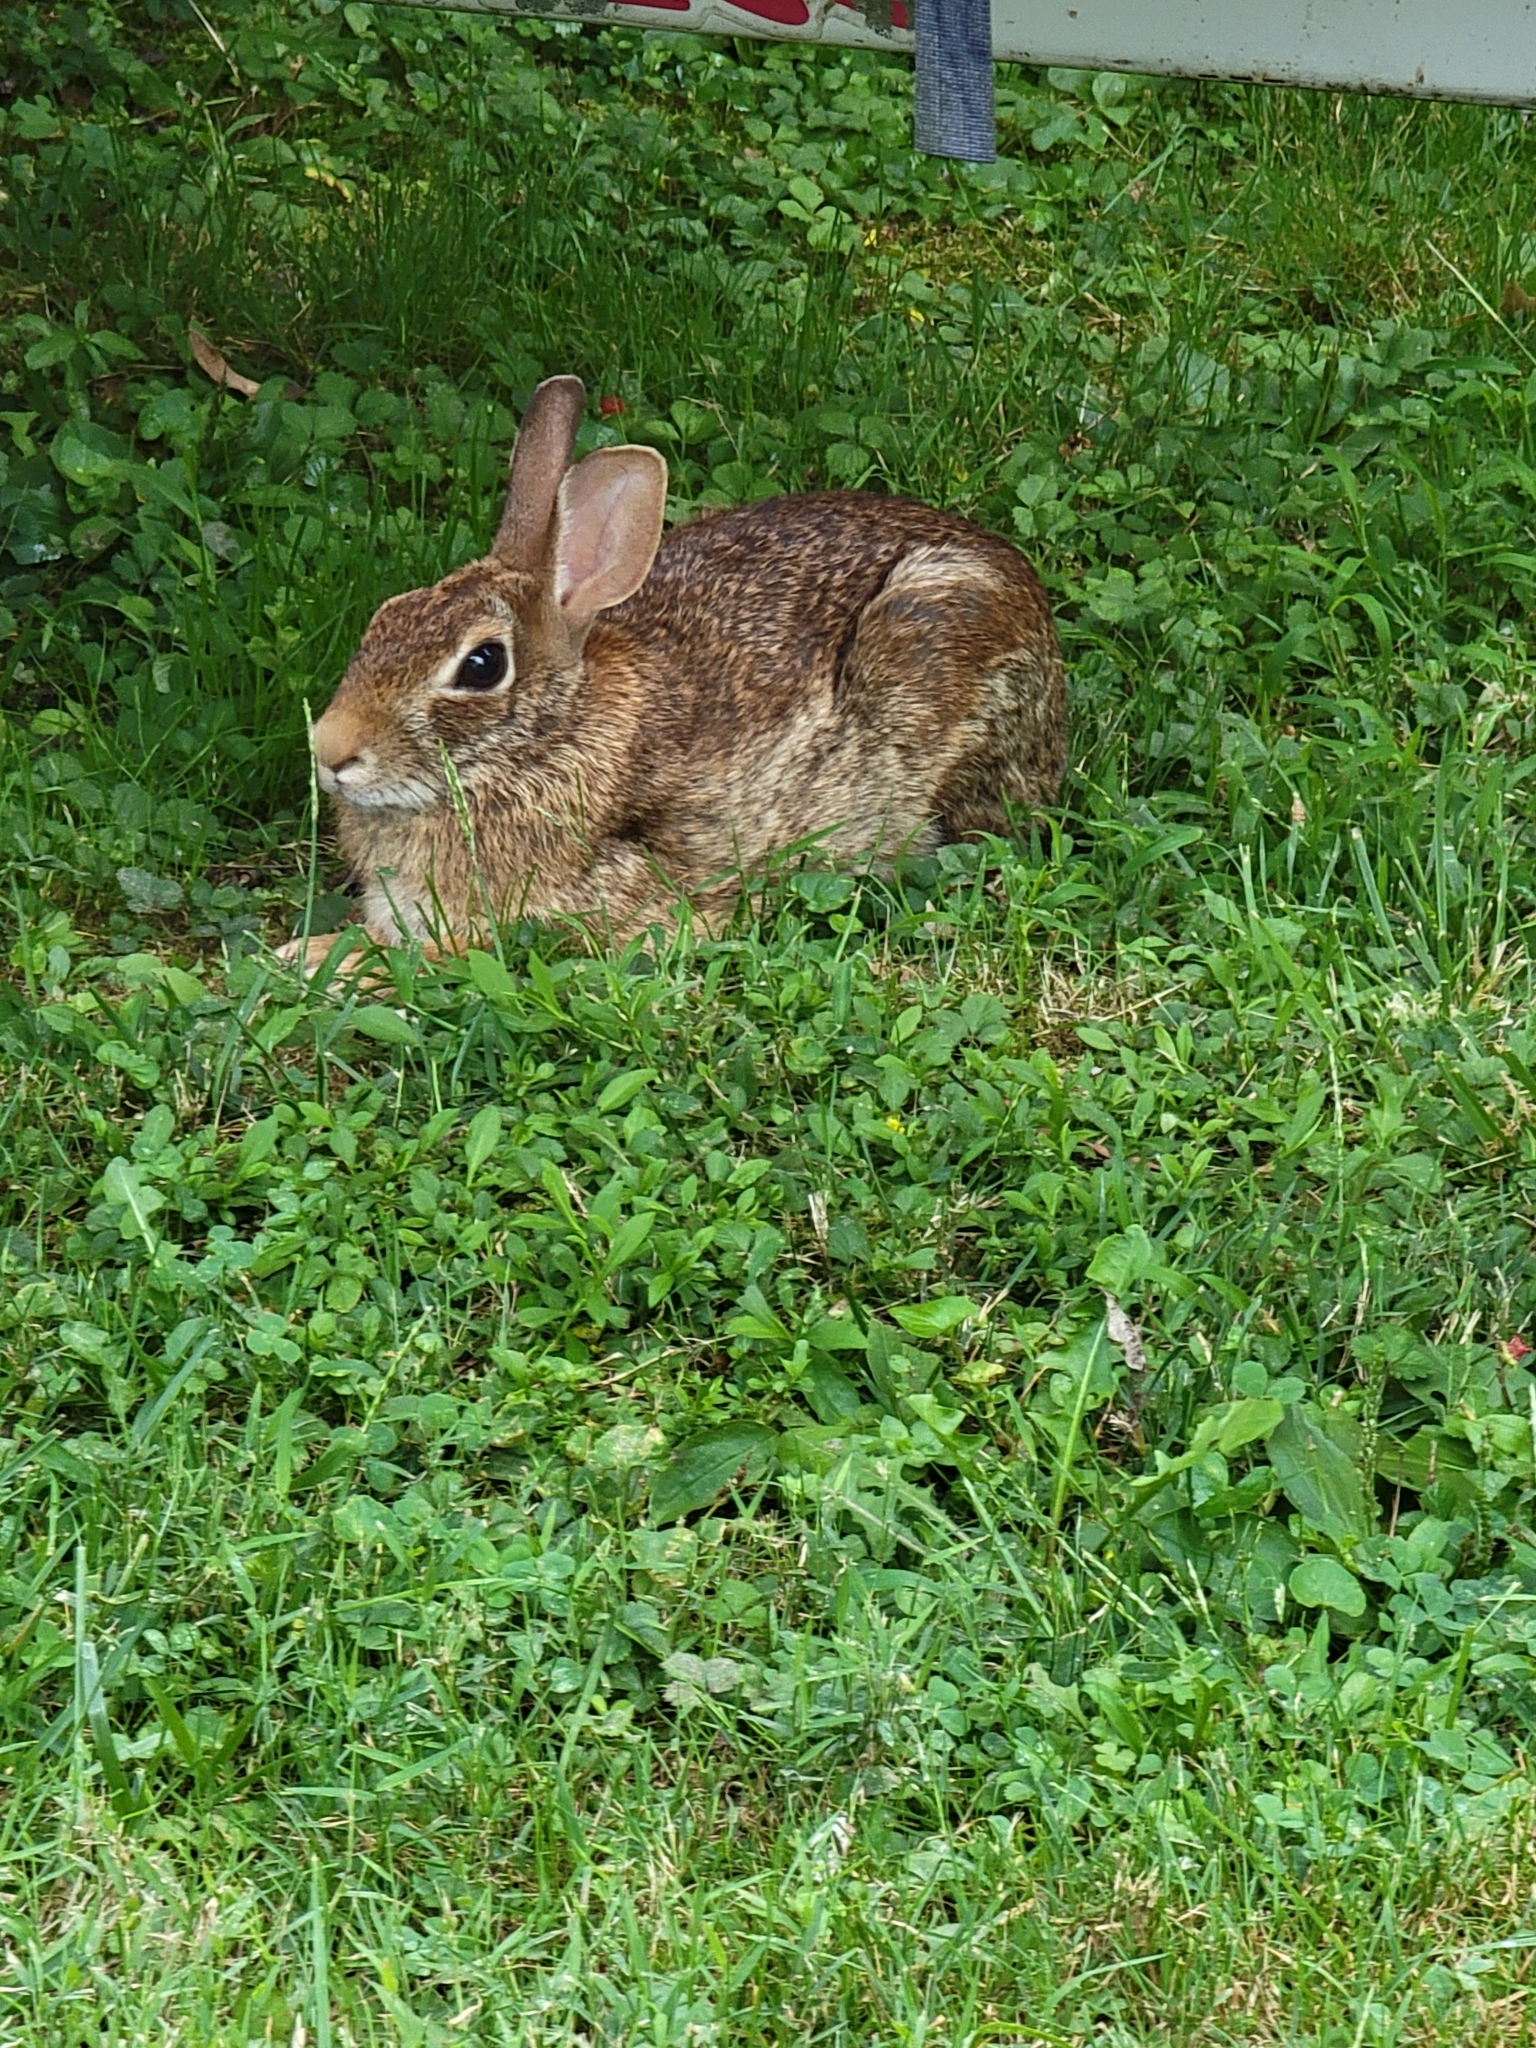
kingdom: Animalia
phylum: Chordata
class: Mammalia
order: Lagomorpha
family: Leporidae
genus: Sylvilagus
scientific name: Sylvilagus floridanus
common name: Eastern cottontail
